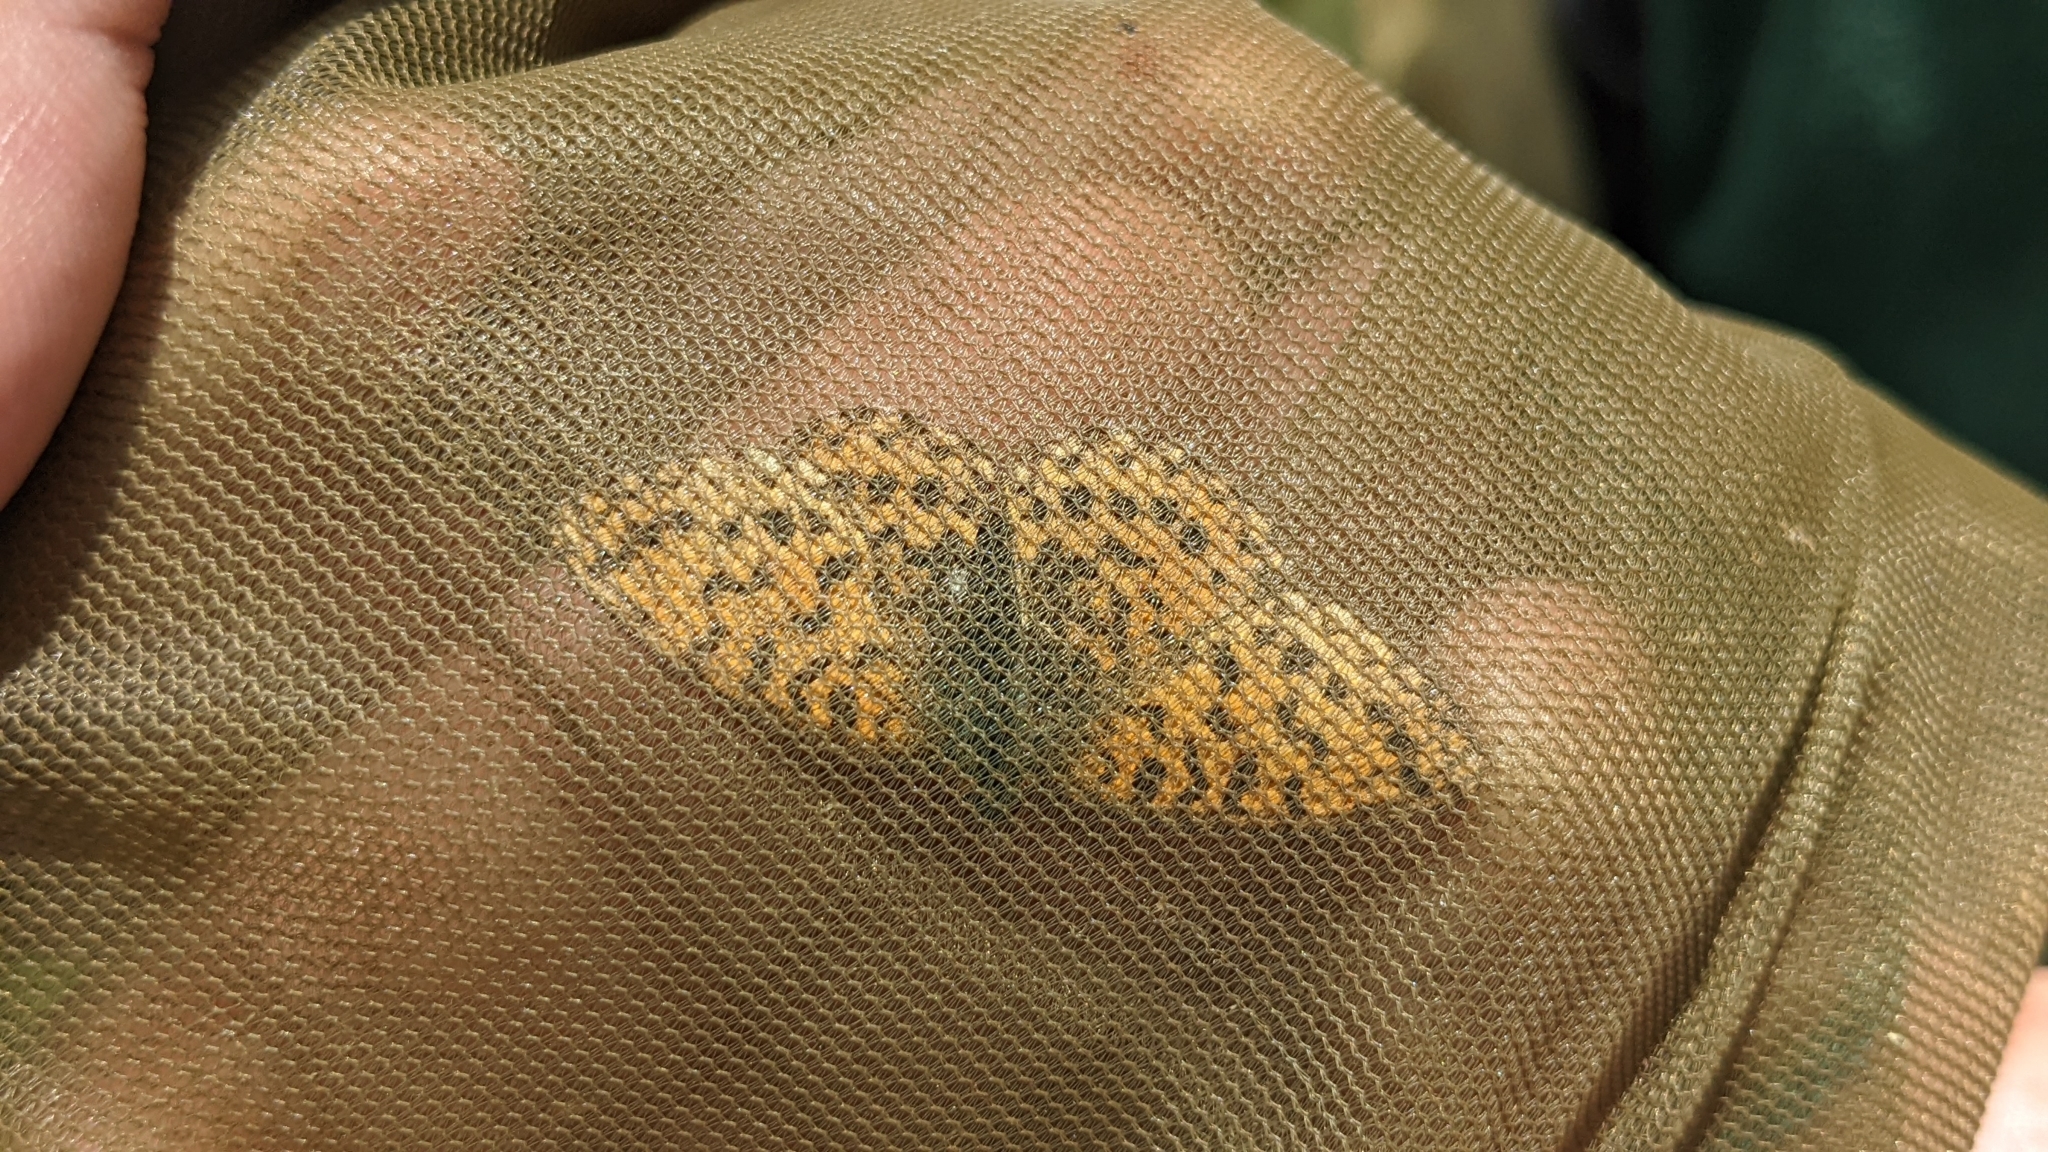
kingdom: Animalia
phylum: Arthropoda
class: Insecta
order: Lepidoptera
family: Nymphalidae
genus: Boloria
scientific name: Boloria dia
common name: Weaver's fritillary
